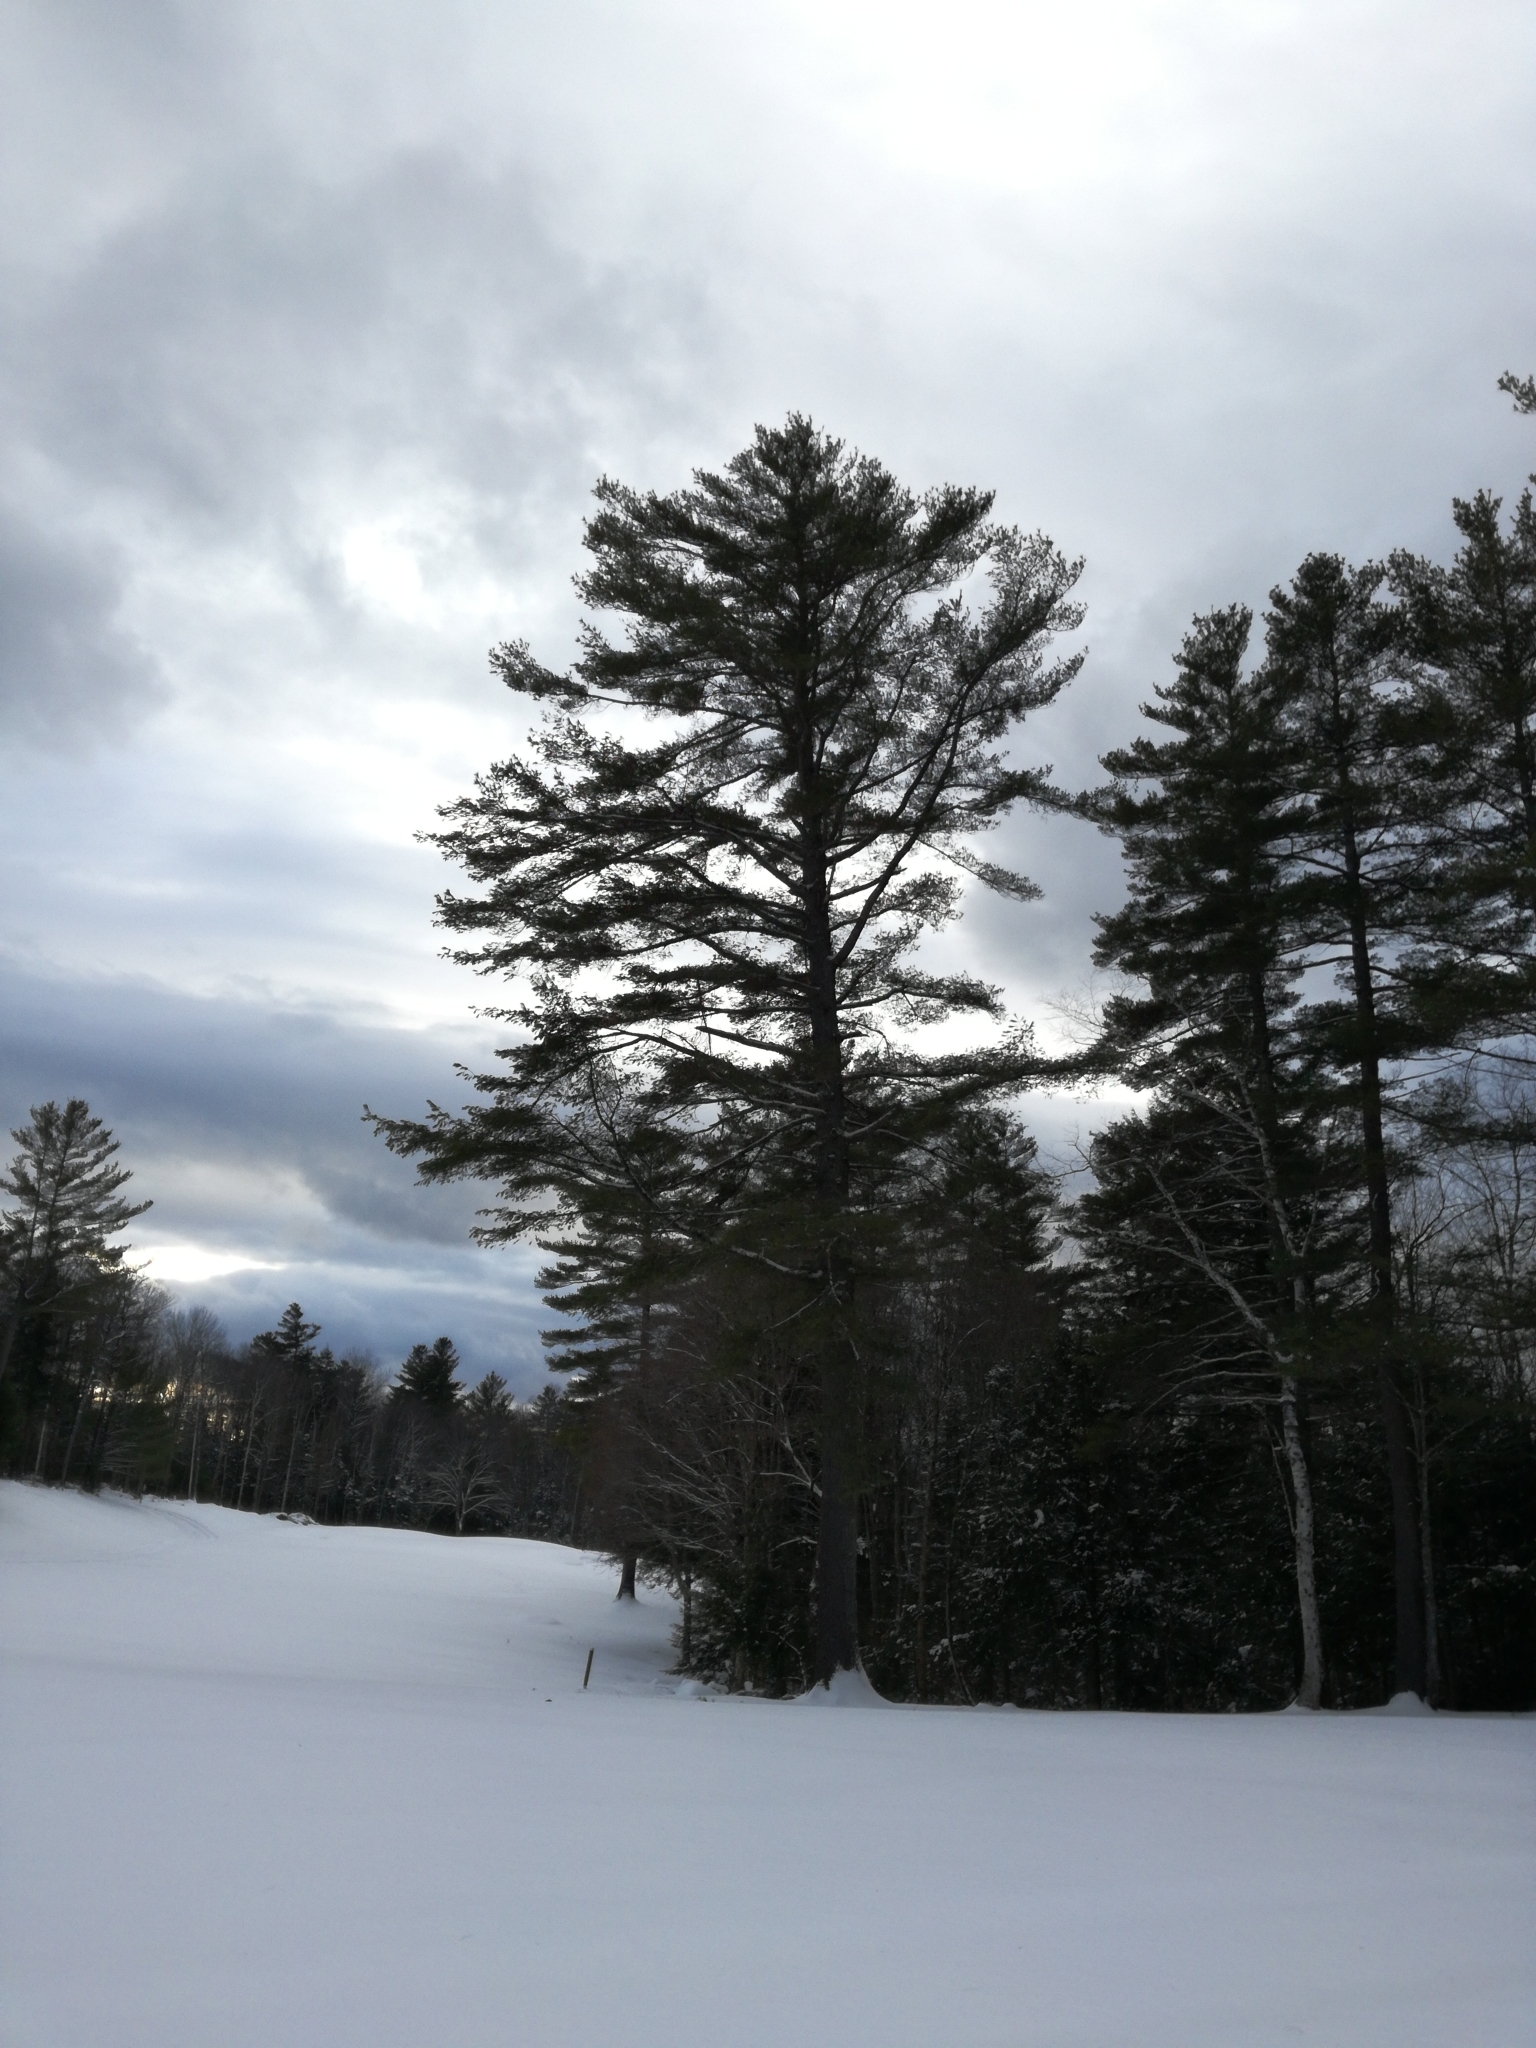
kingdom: Plantae
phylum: Tracheophyta
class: Pinopsida
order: Pinales
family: Pinaceae
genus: Pinus
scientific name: Pinus strobus
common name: Weymouth pine
